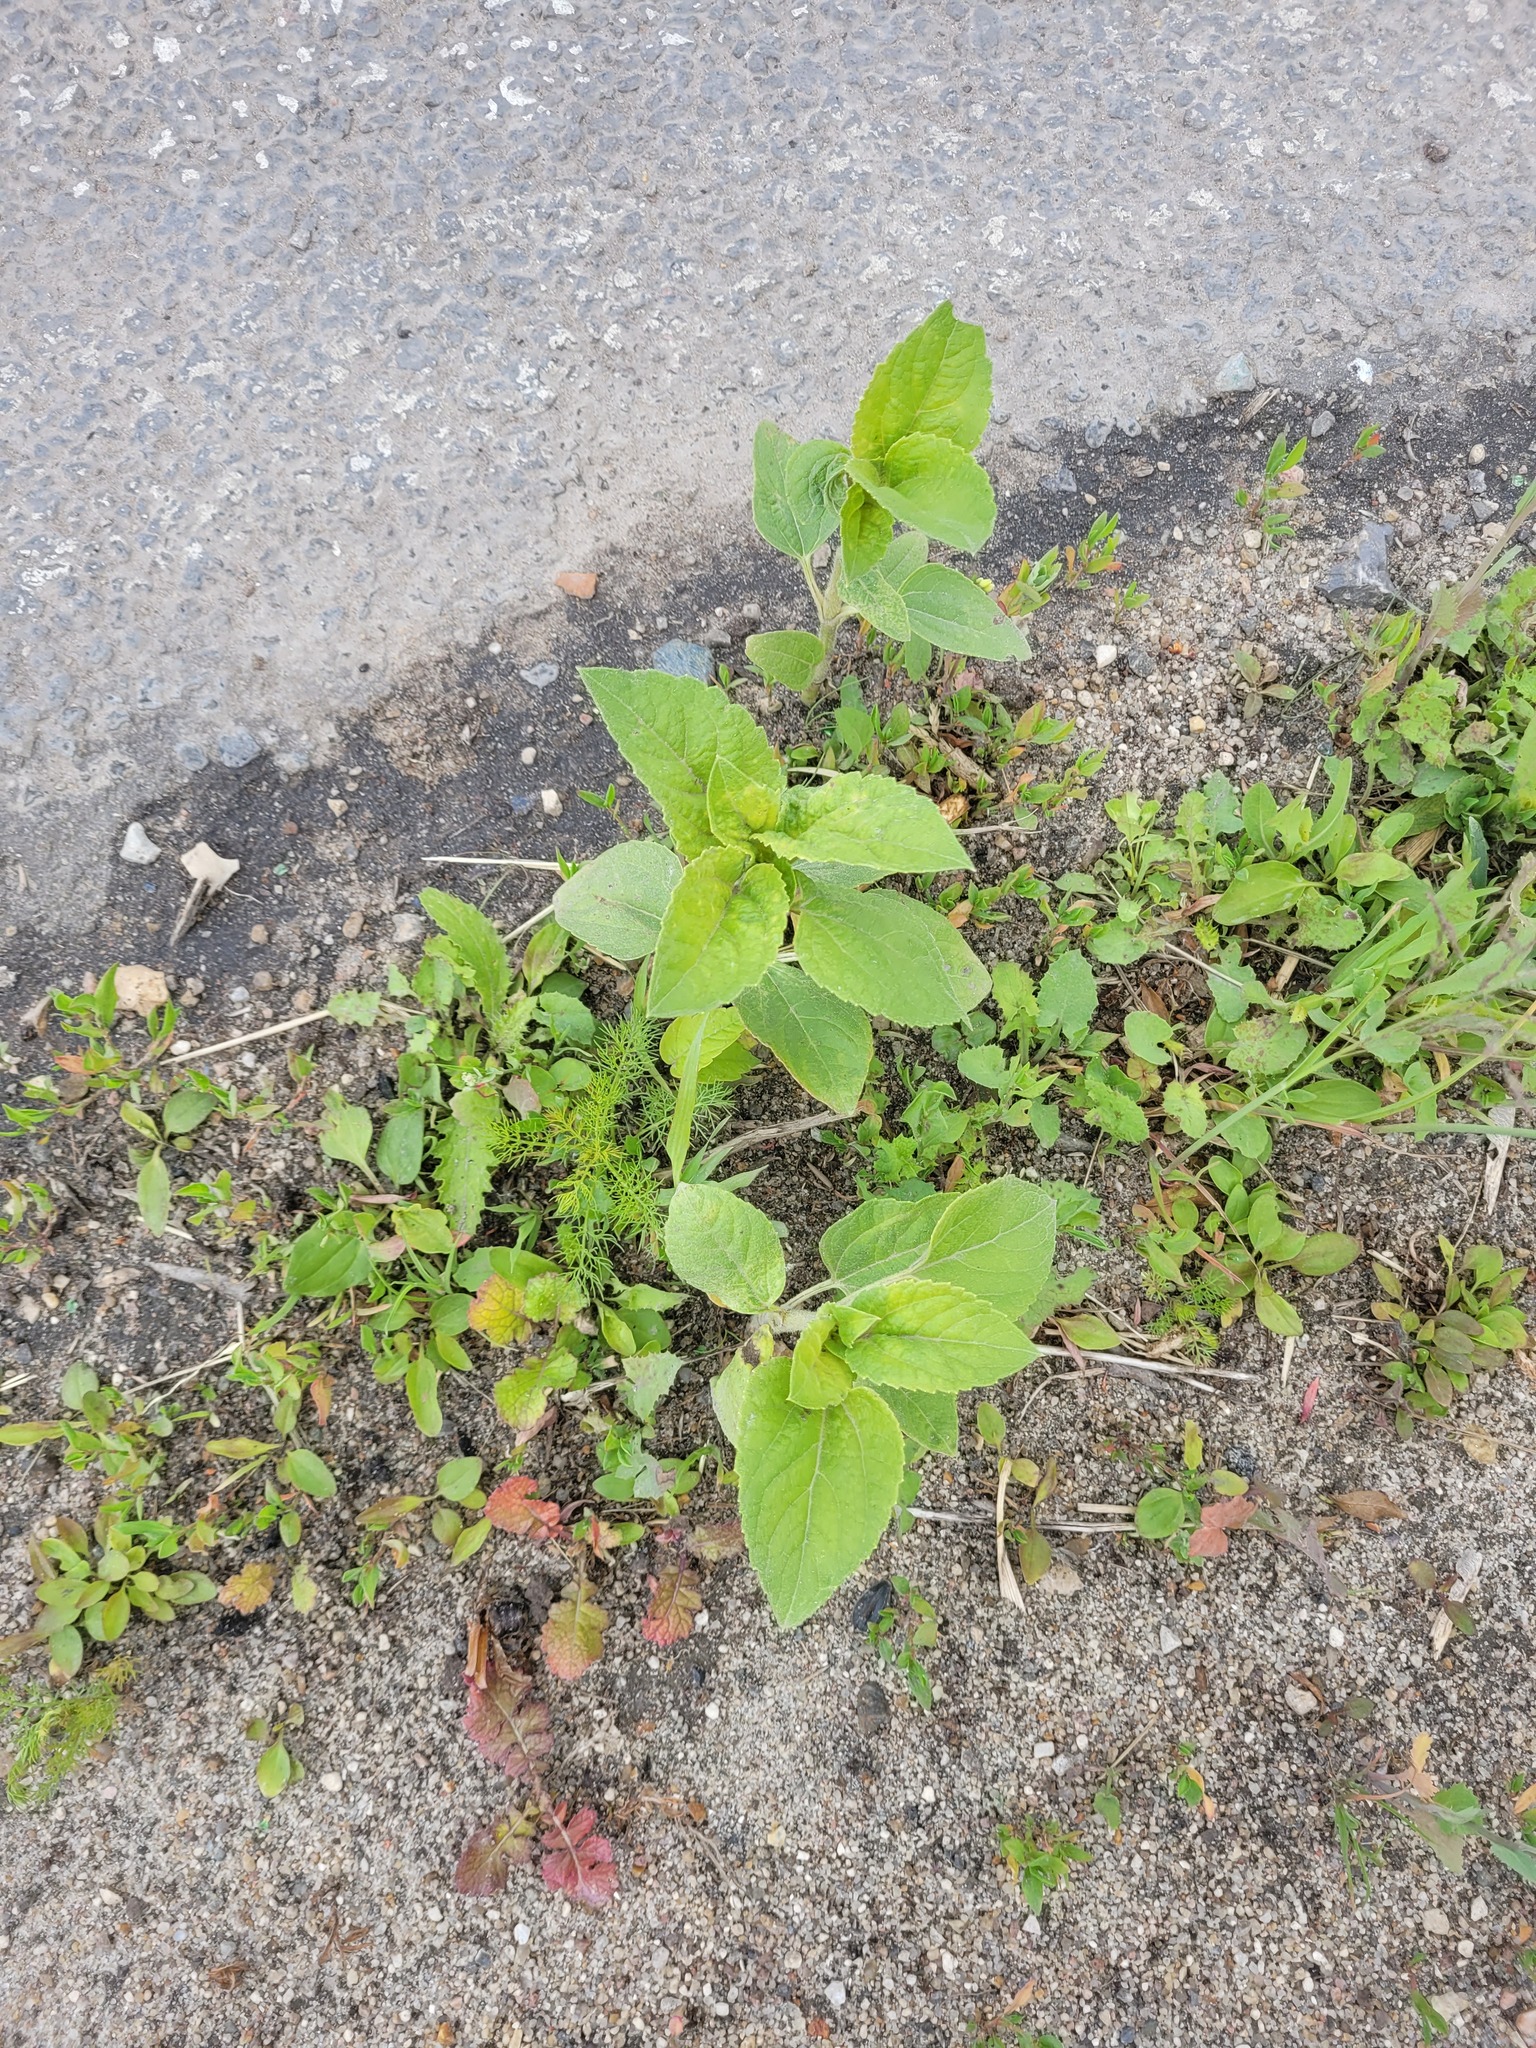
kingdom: Plantae
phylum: Tracheophyta
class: Magnoliopsida
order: Asterales
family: Asteraceae
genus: Helianthus
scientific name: Helianthus annuus
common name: Sunflower
